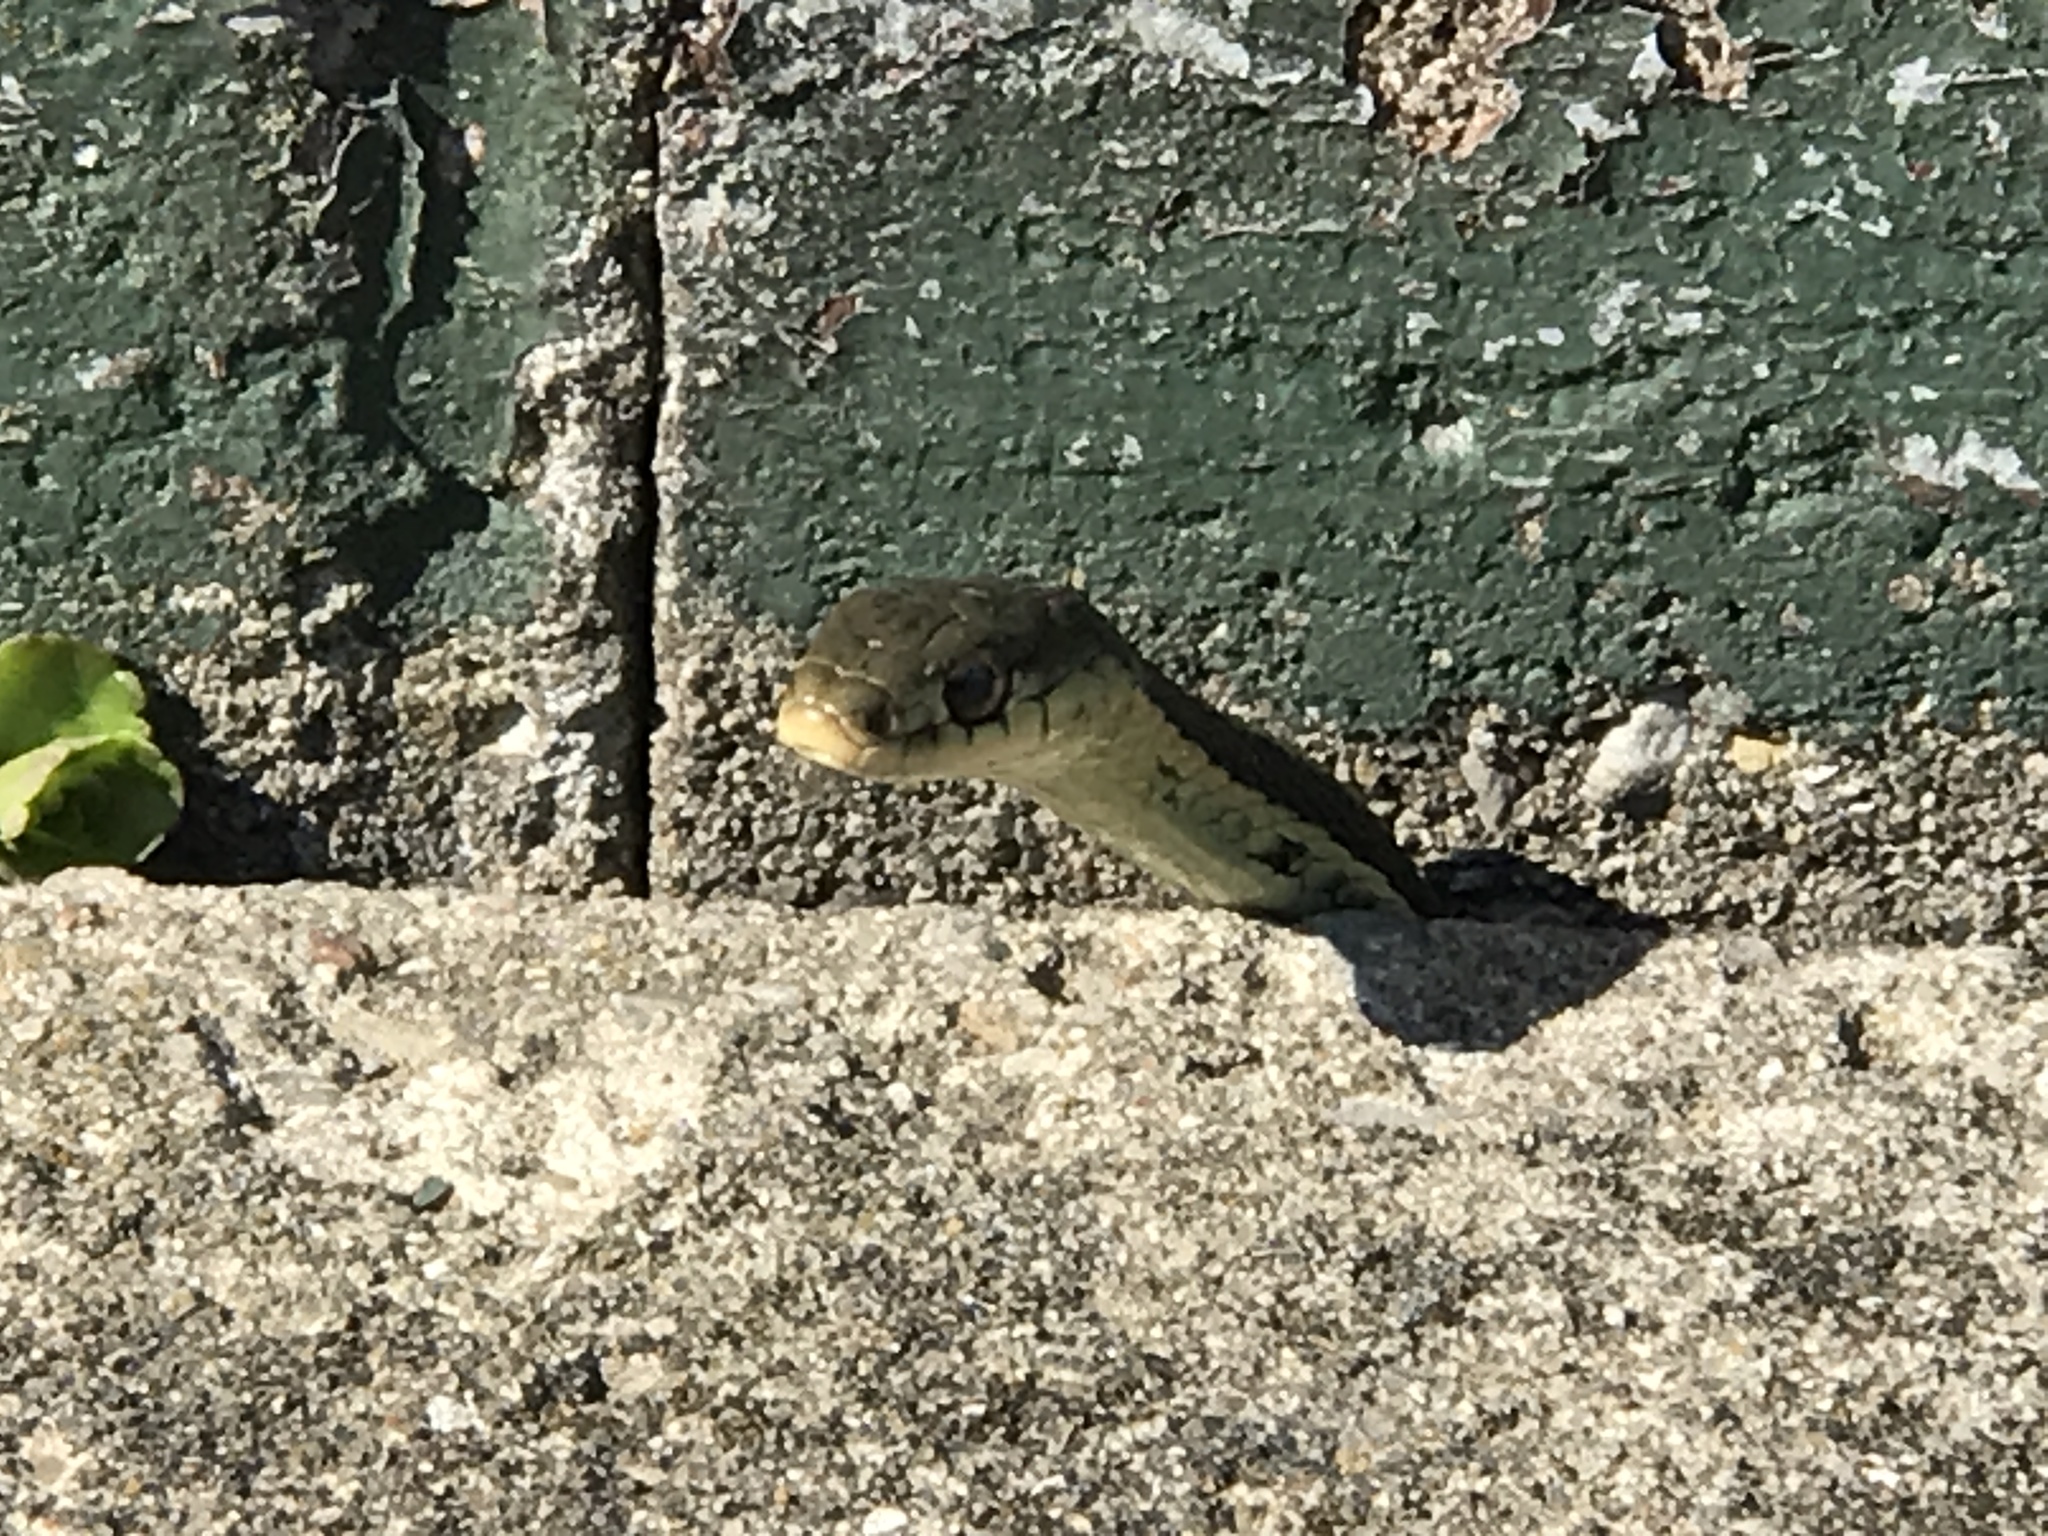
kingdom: Animalia
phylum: Chordata
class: Squamata
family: Colubridae
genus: Thamnophis
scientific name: Thamnophis sirtalis
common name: Common garter snake
